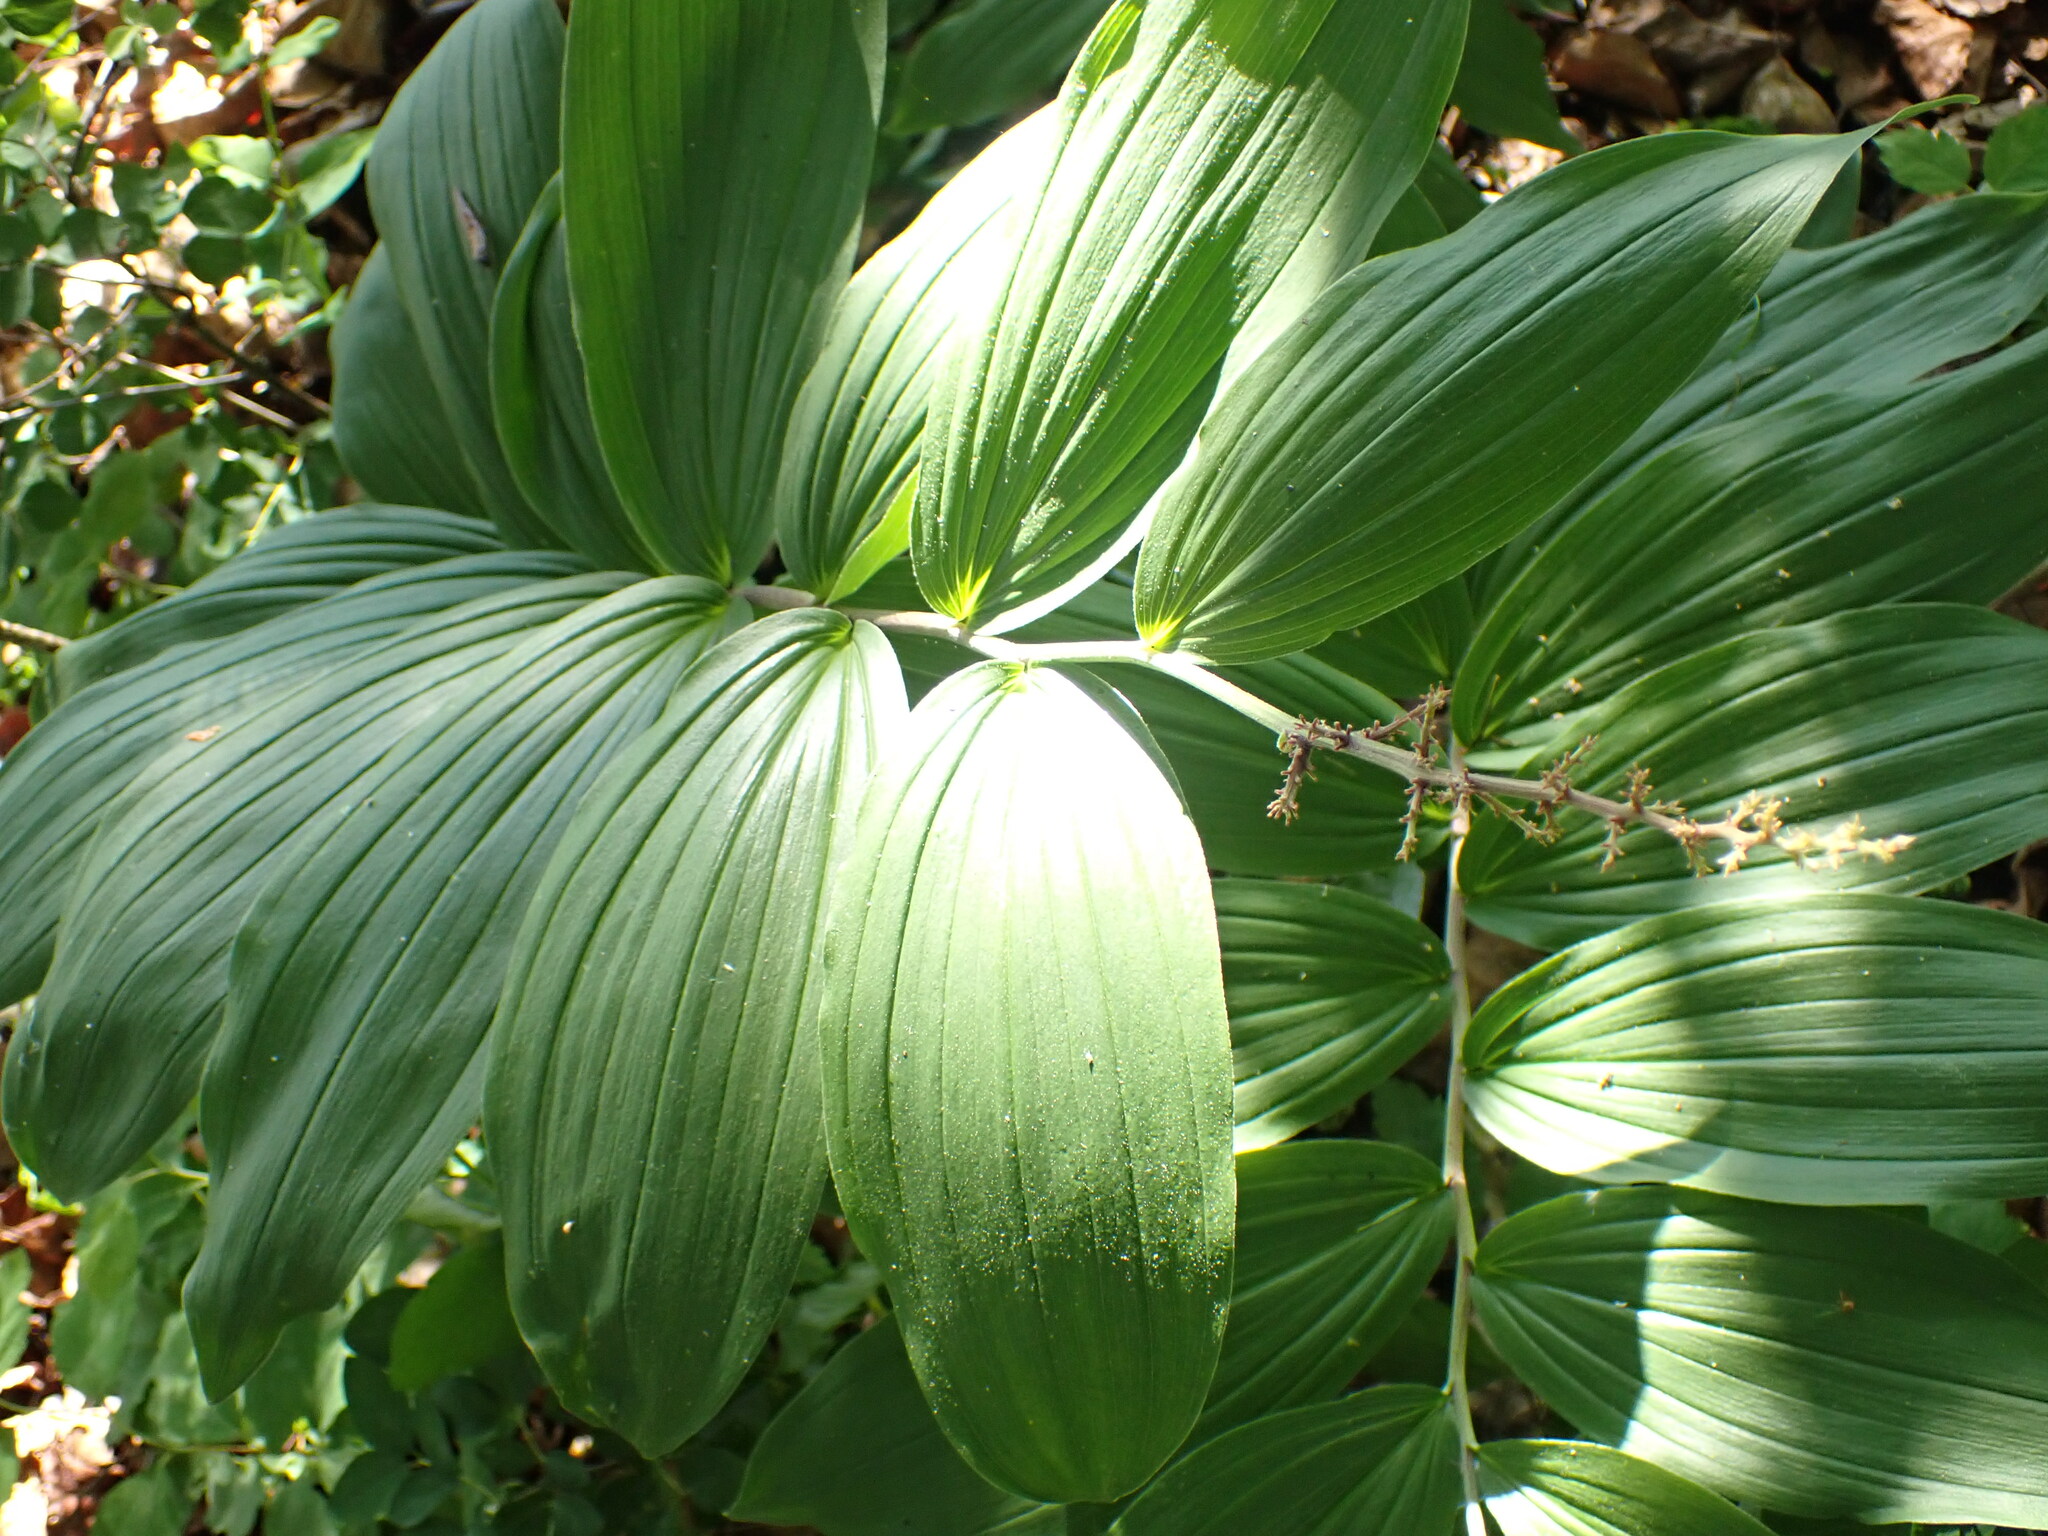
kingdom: Plantae
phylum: Tracheophyta
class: Liliopsida
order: Asparagales
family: Asparagaceae
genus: Maianthemum
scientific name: Maianthemum racemosum
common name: False spikenard
